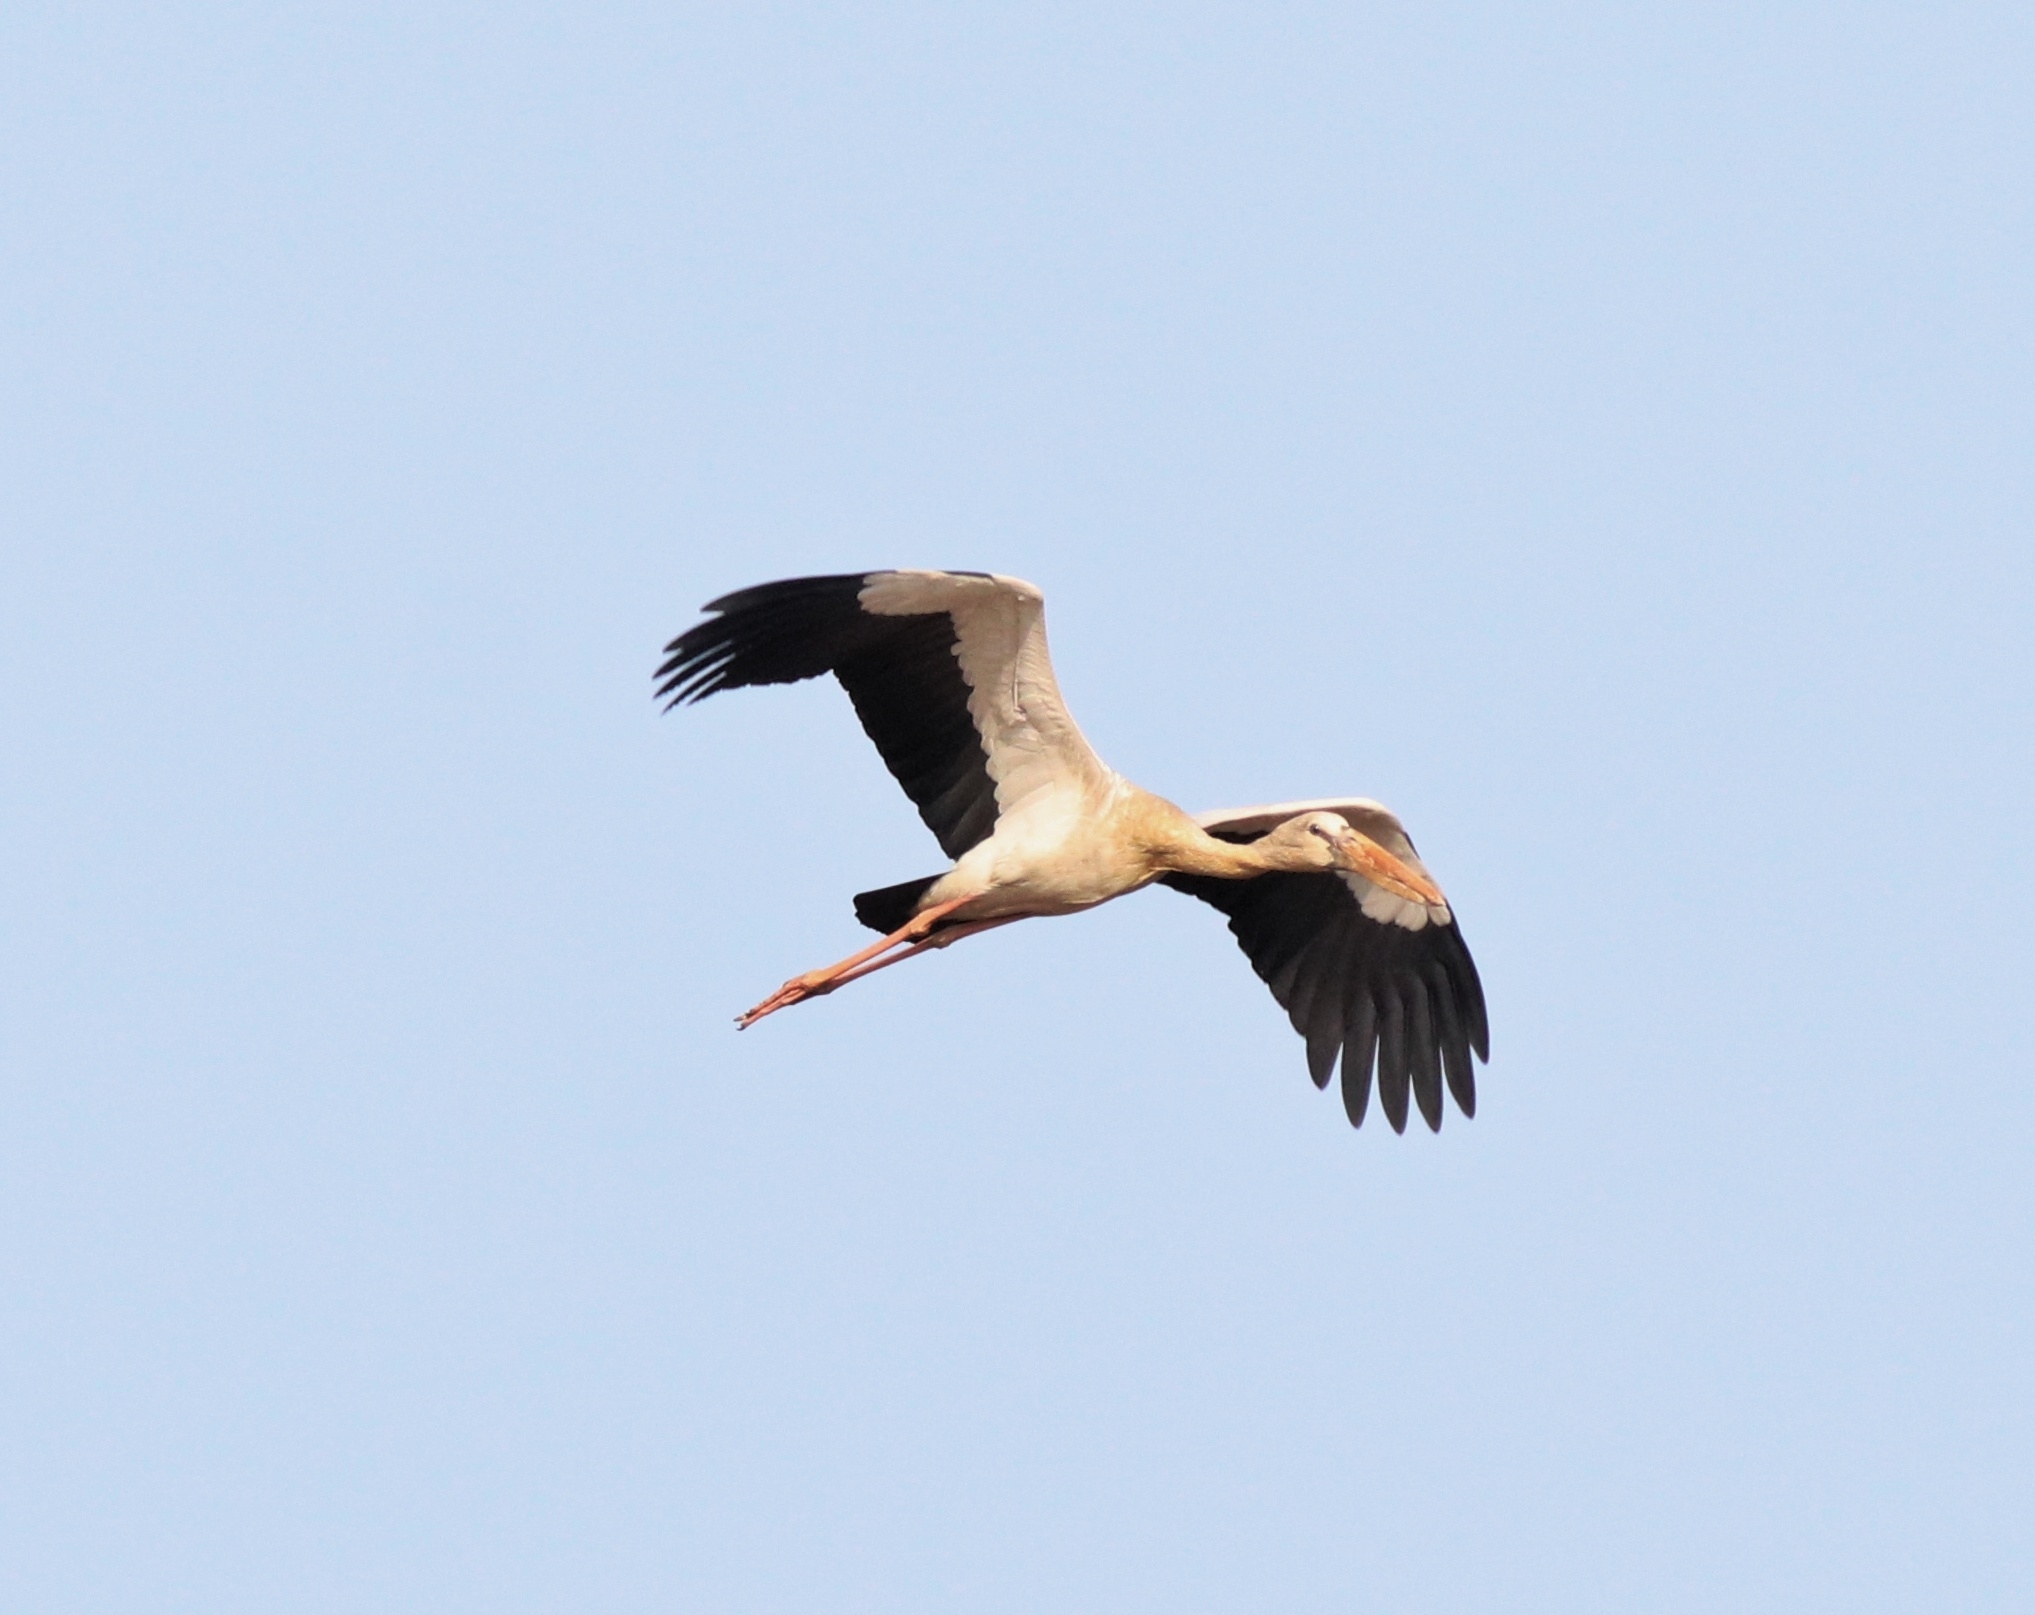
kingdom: Animalia
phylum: Chordata
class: Aves
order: Ciconiiformes
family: Ciconiidae
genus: Anastomus
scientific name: Anastomus oscitans
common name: Asian openbill
